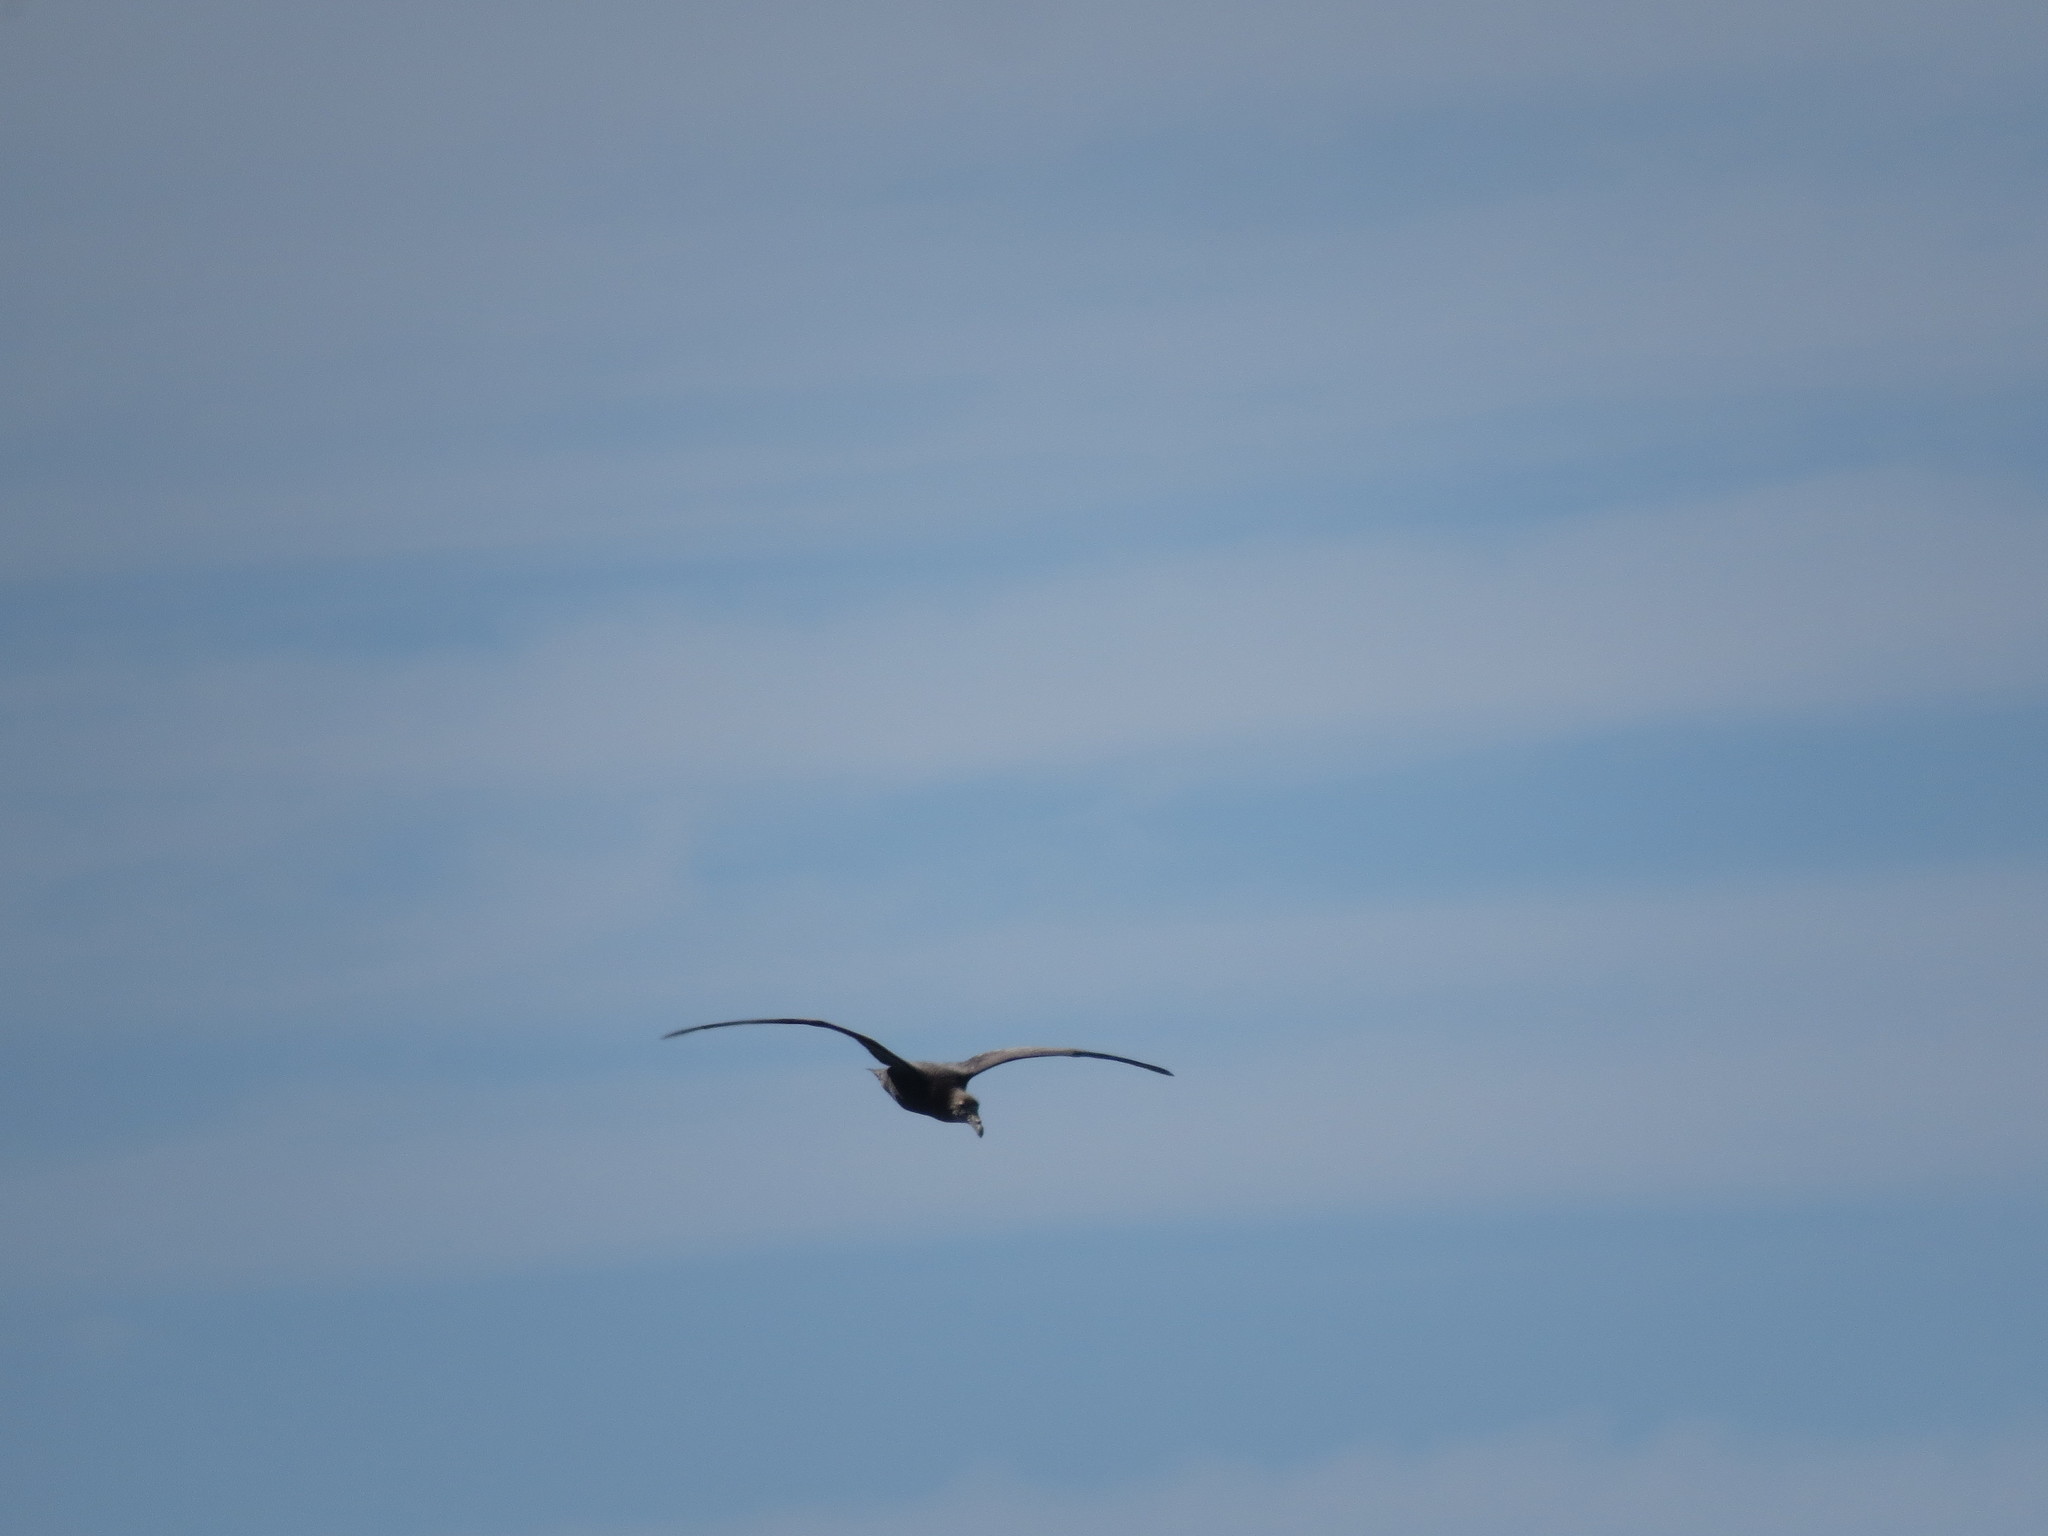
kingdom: Animalia
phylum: Chordata
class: Aves
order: Procellariiformes
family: Procellariidae
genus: Macronectes
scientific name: Macronectes
